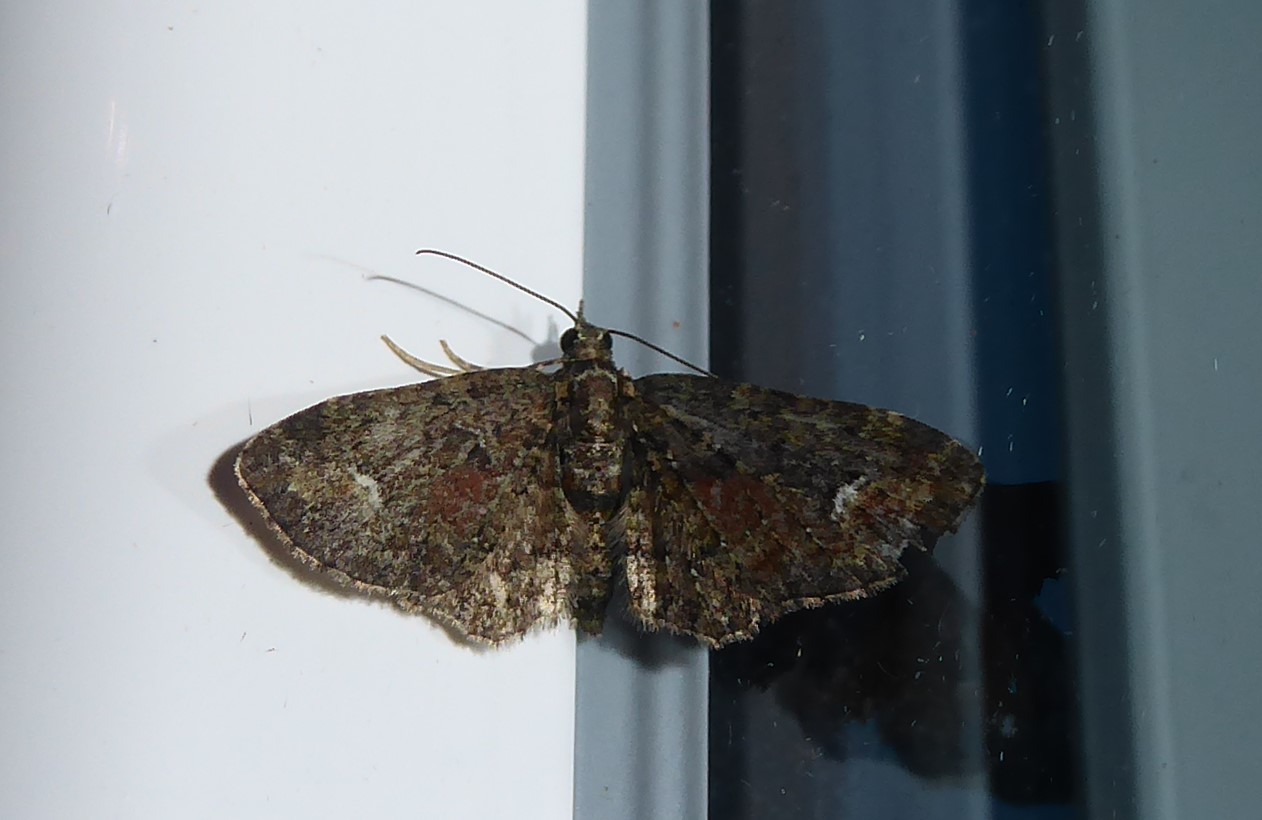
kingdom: Animalia
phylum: Arthropoda
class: Insecta
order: Lepidoptera
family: Geometridae
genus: Pasiphilodes
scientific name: Pasiphilodes testulata
